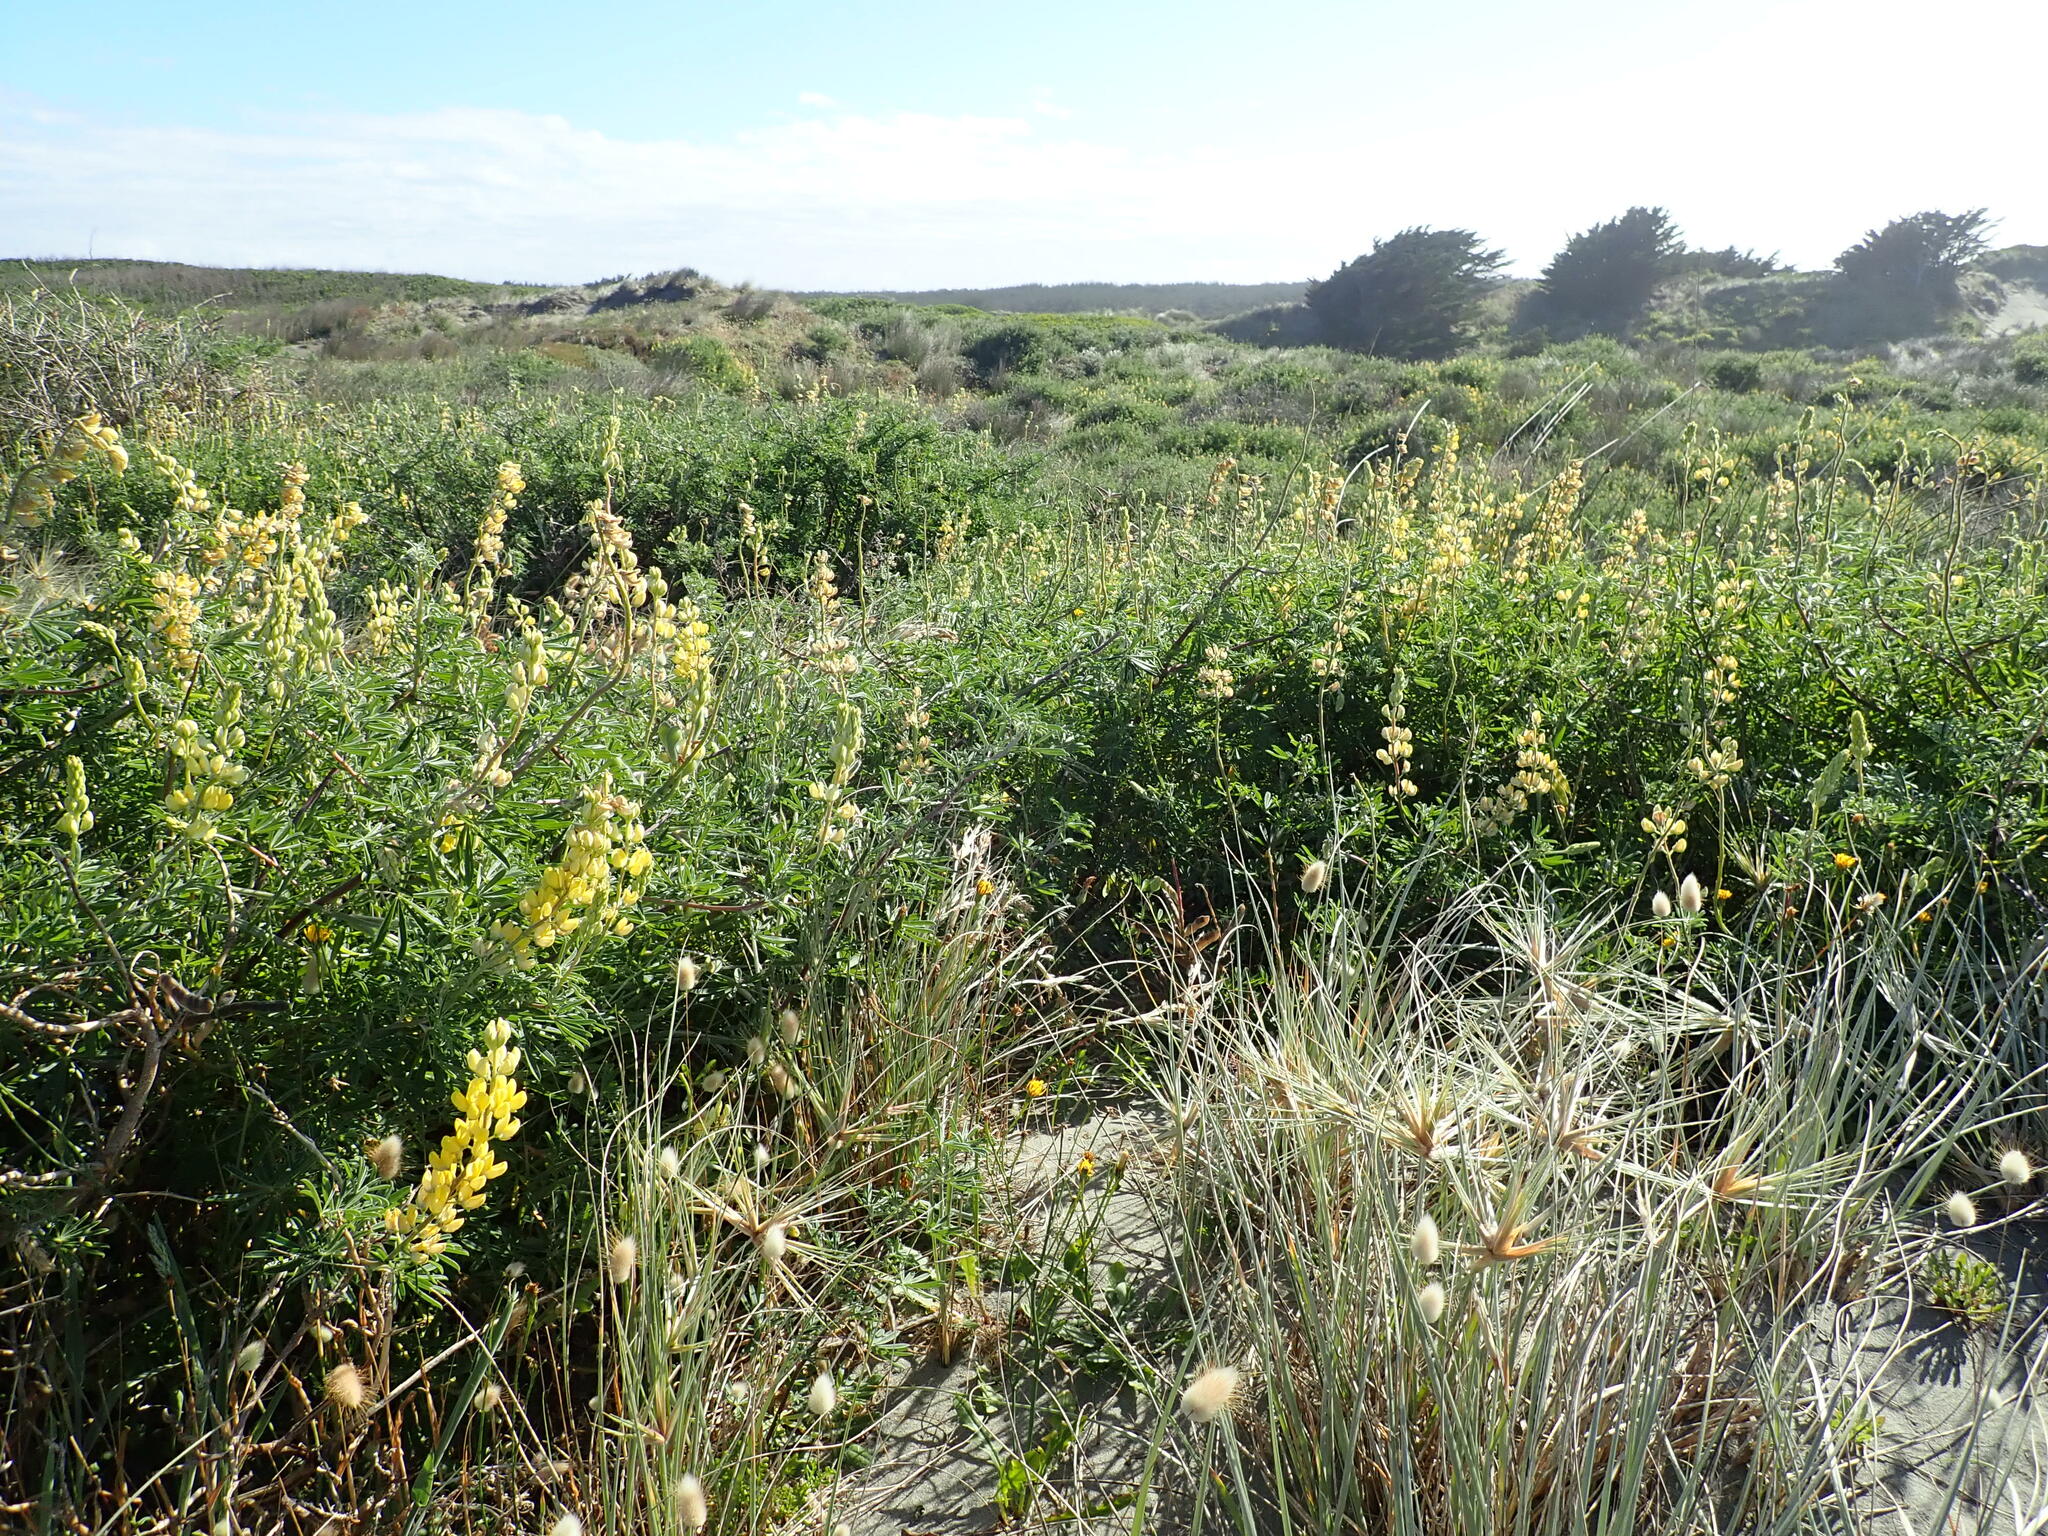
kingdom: Plantae
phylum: Tracheophyta
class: Magnoliopsida
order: Fabales
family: Fabaceae
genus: Lupinus
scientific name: Lupinus arboreus
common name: Yellow bush lupine
